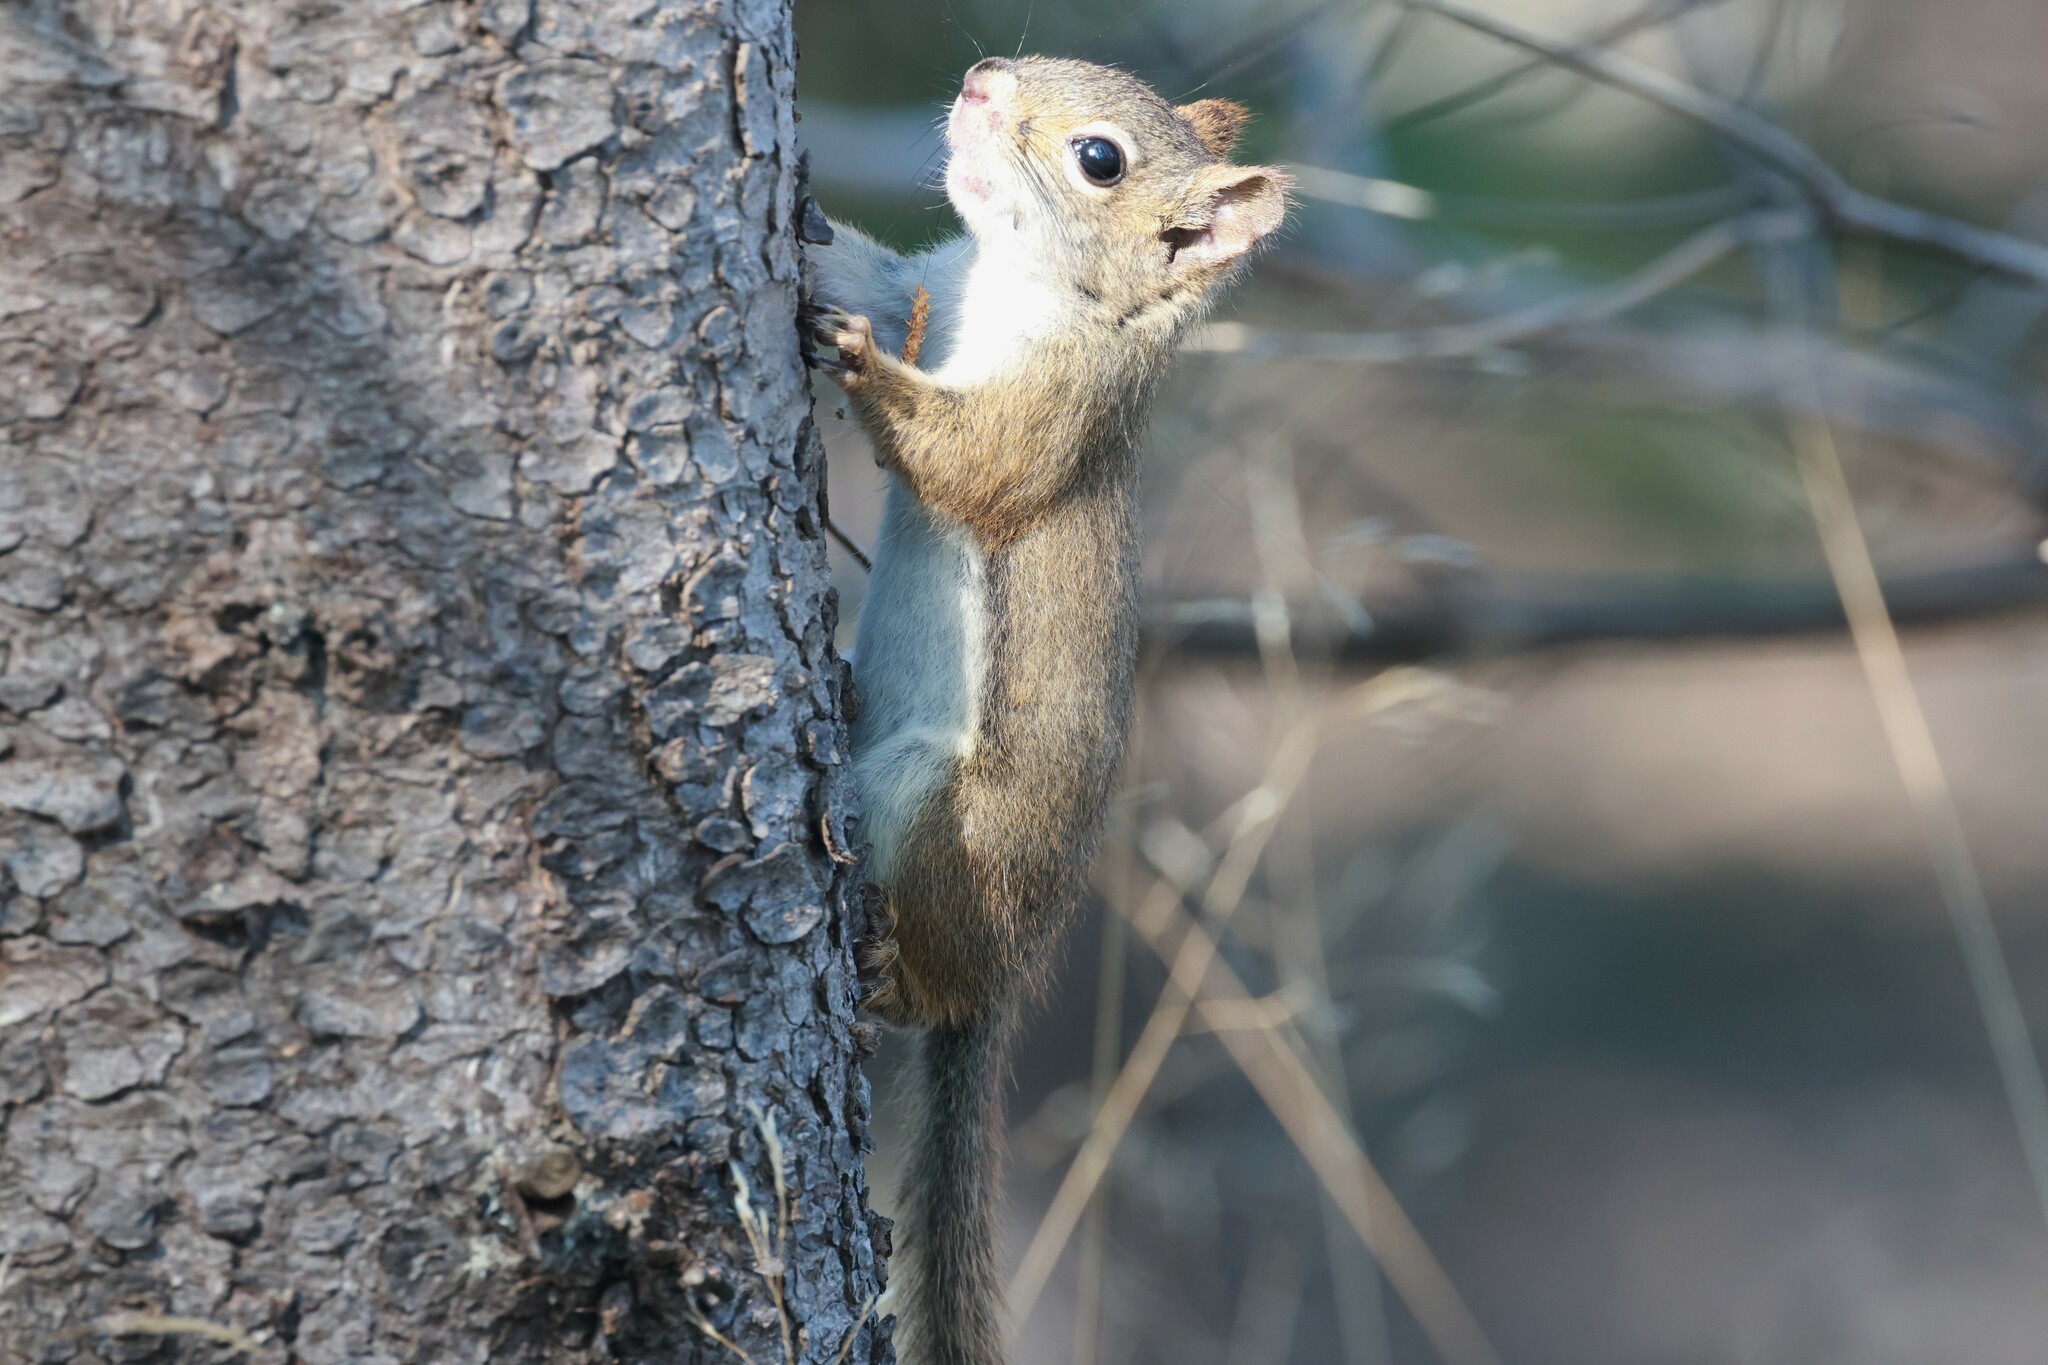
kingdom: Animalia
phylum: Chordata
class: Mammalia
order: Rodentia
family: Sciuridae
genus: Tamiasciurus
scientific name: Tamiasciurus hudsonicus
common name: Red squirrel
